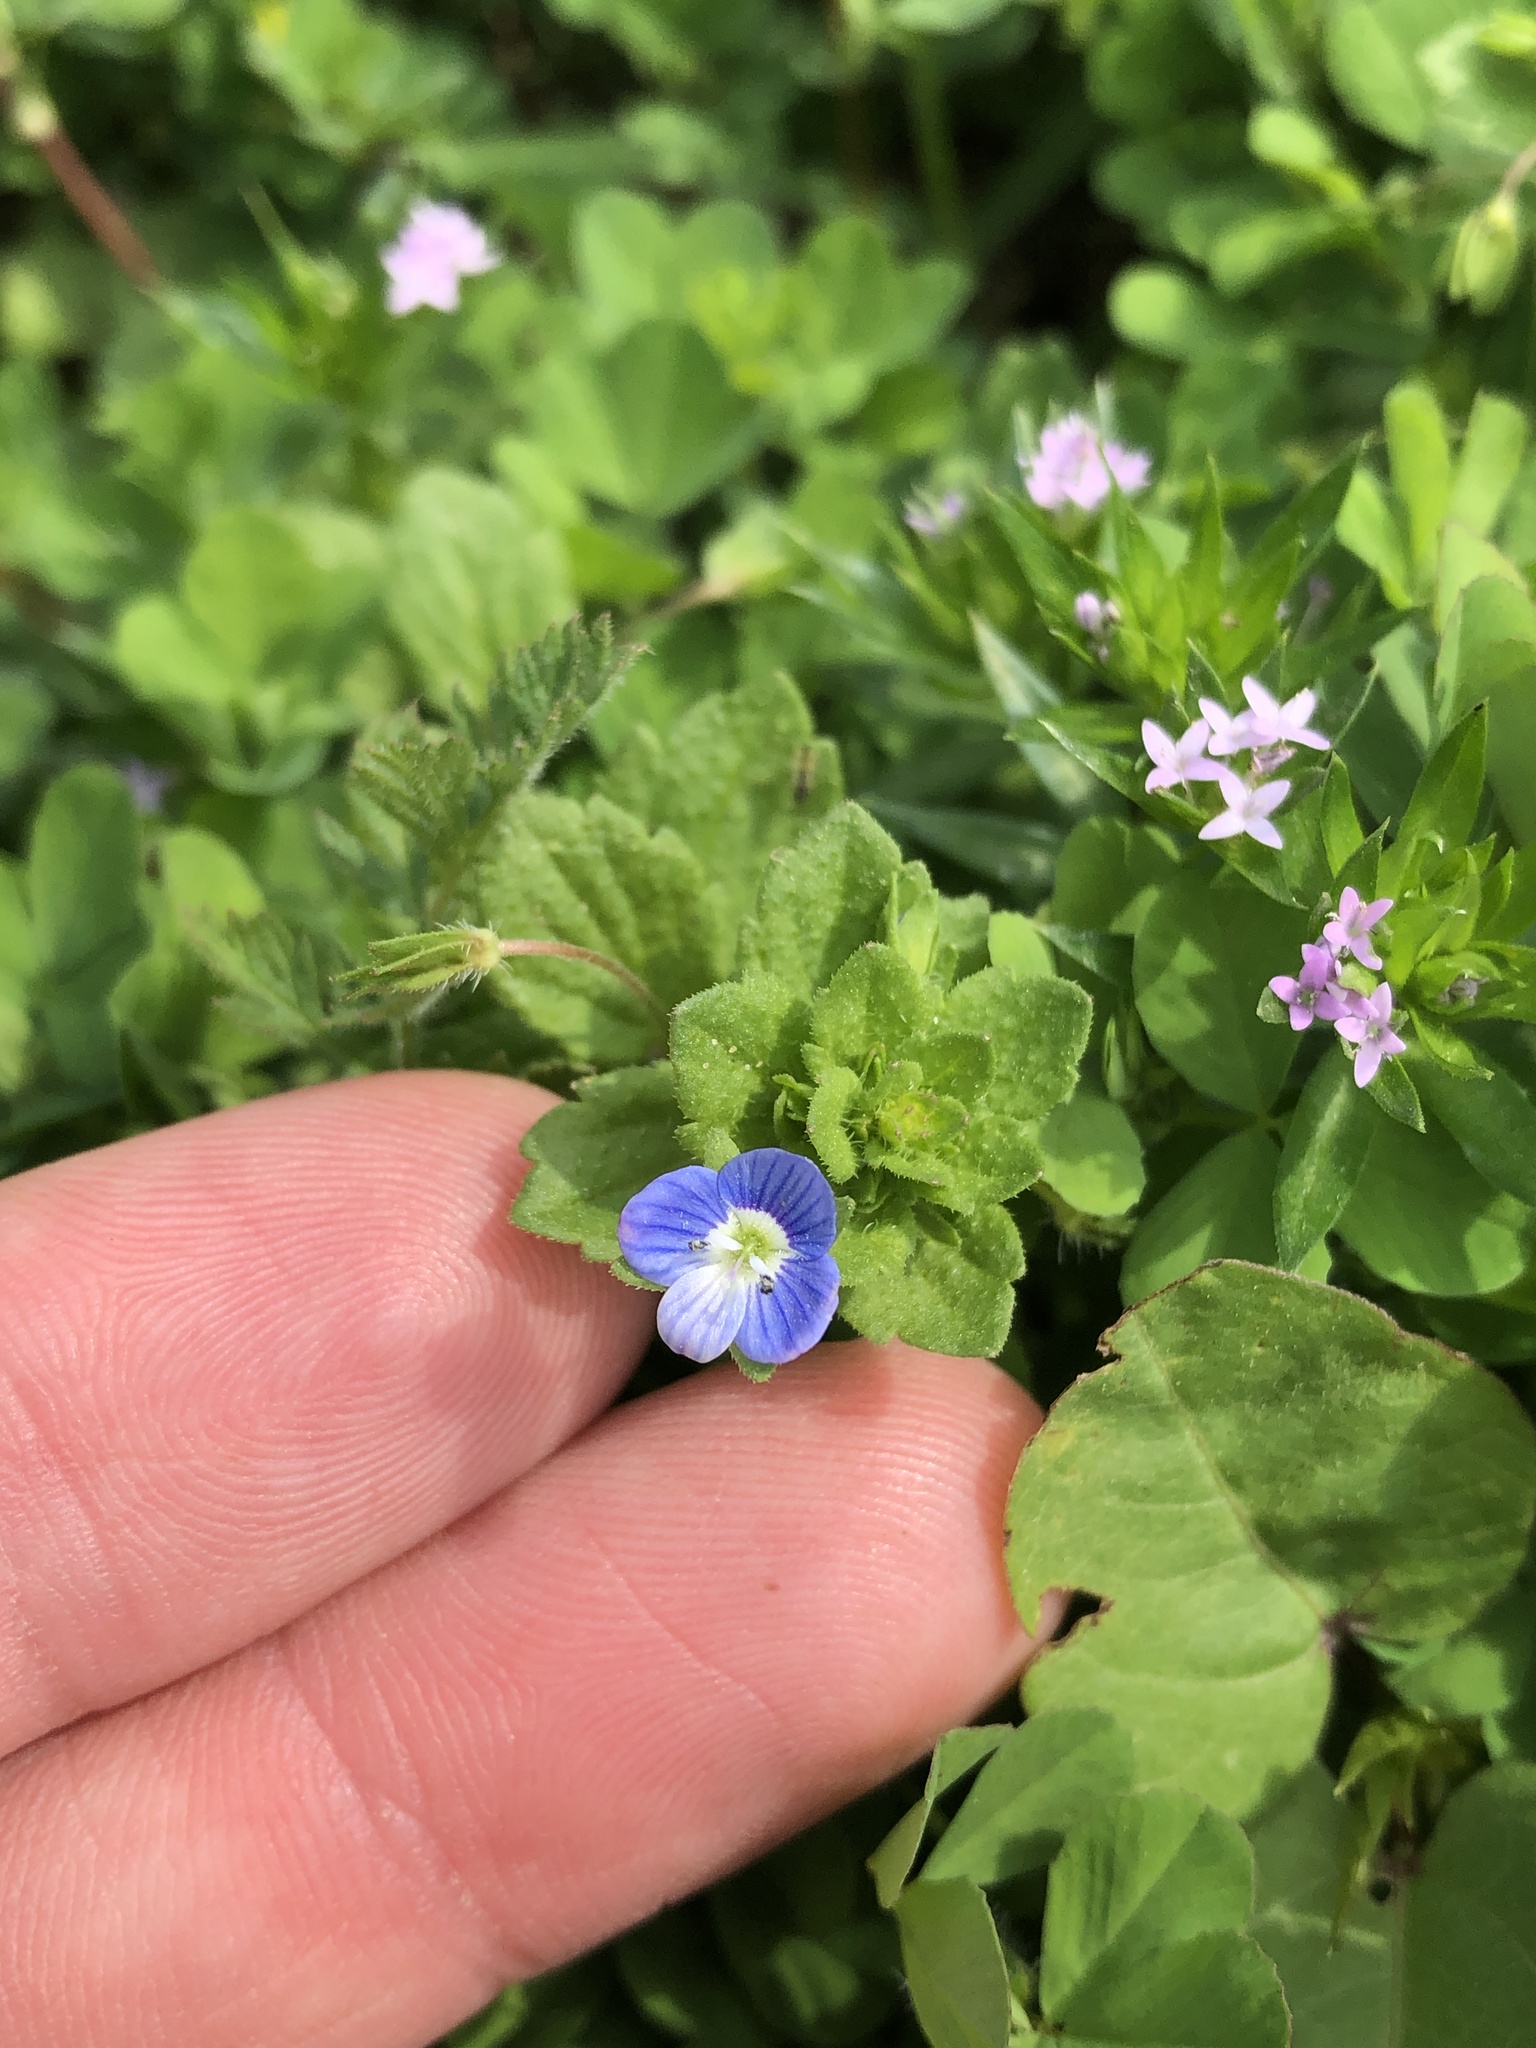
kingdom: Plantae
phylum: Tracheophyta
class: Magnoliopsida
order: Lamiales
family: Plantaginaceae
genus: Veronica
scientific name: Veronica persica
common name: Common field-speedwell
